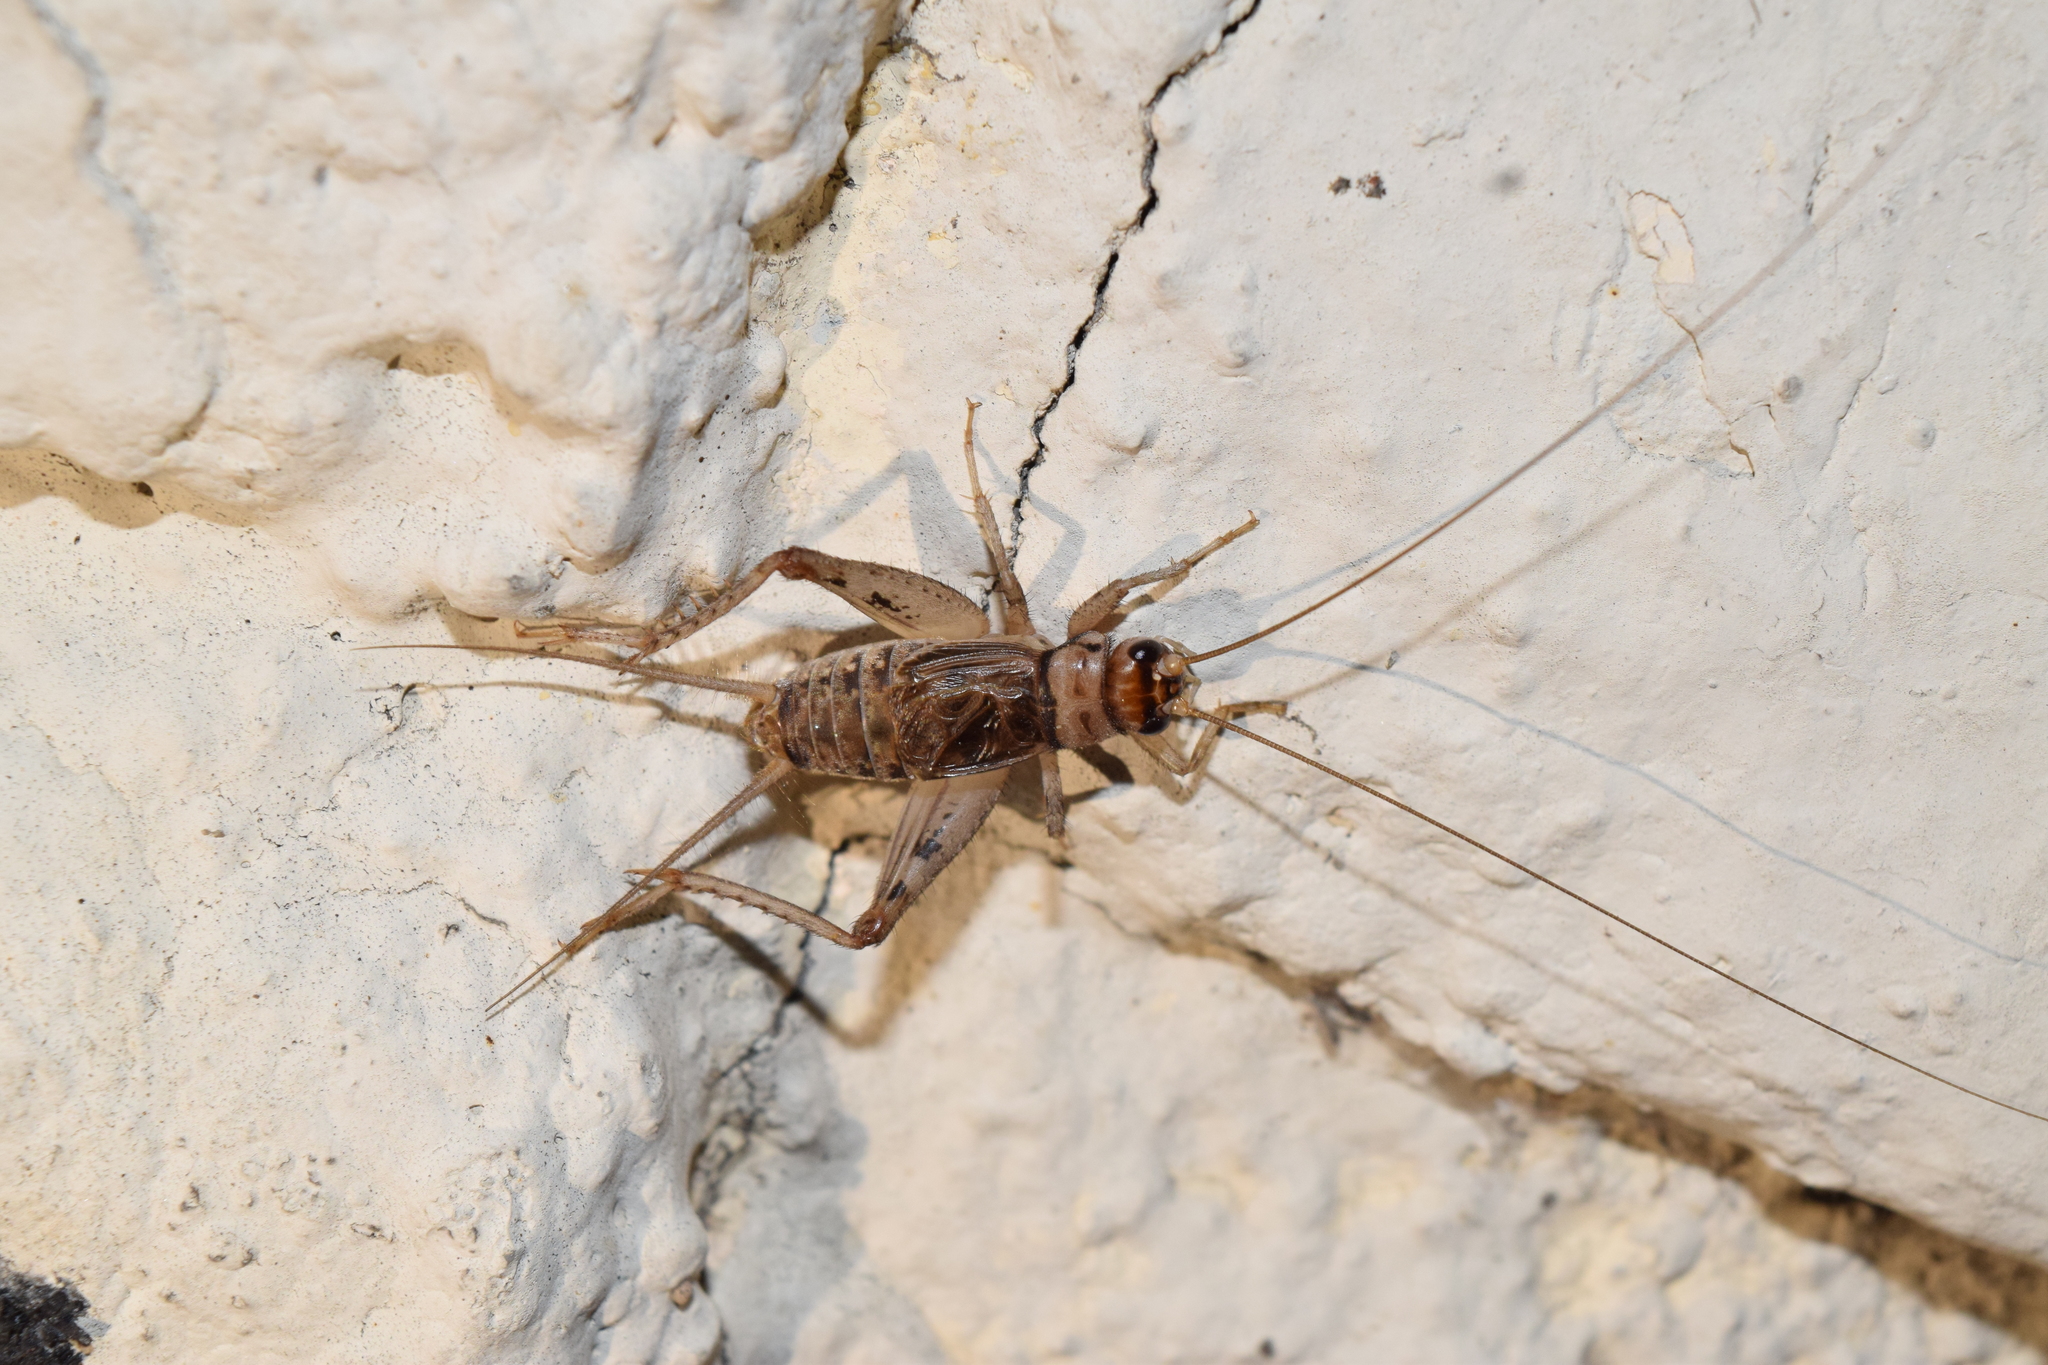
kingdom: Animalia
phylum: Arthropoda
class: Insecta
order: Orthoptera
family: Gryllidae
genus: Gryllodes
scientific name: Gryllodes sigillatus
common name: Tropical house cricket
